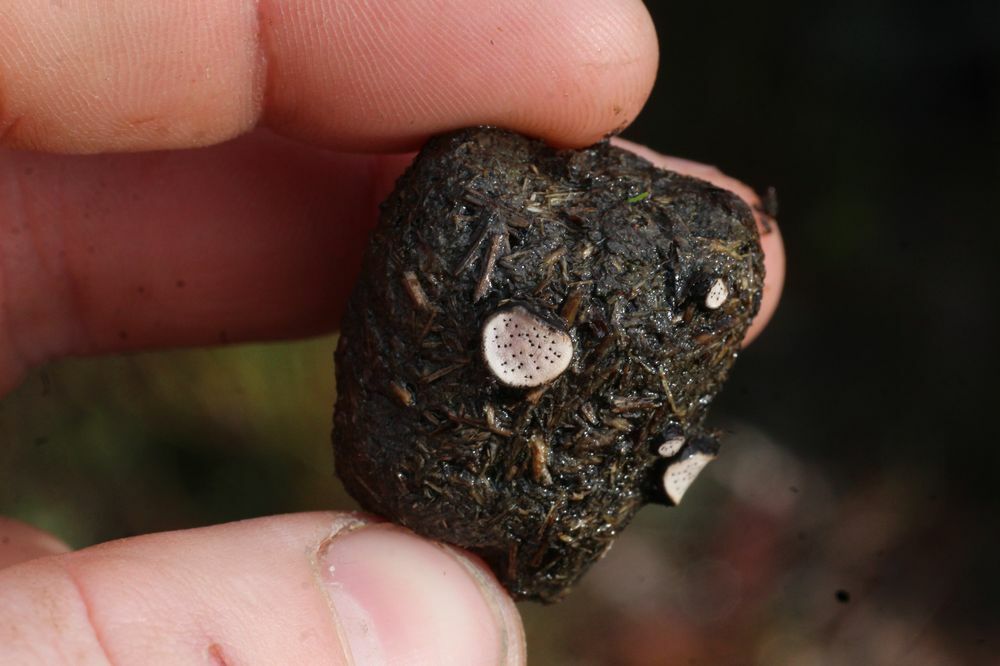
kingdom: Fungi
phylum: Ascomycota
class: Sordariomycetes
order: Xylariales
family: Xylariaceae
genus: Poronia
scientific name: Poronia erici
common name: Dung button
